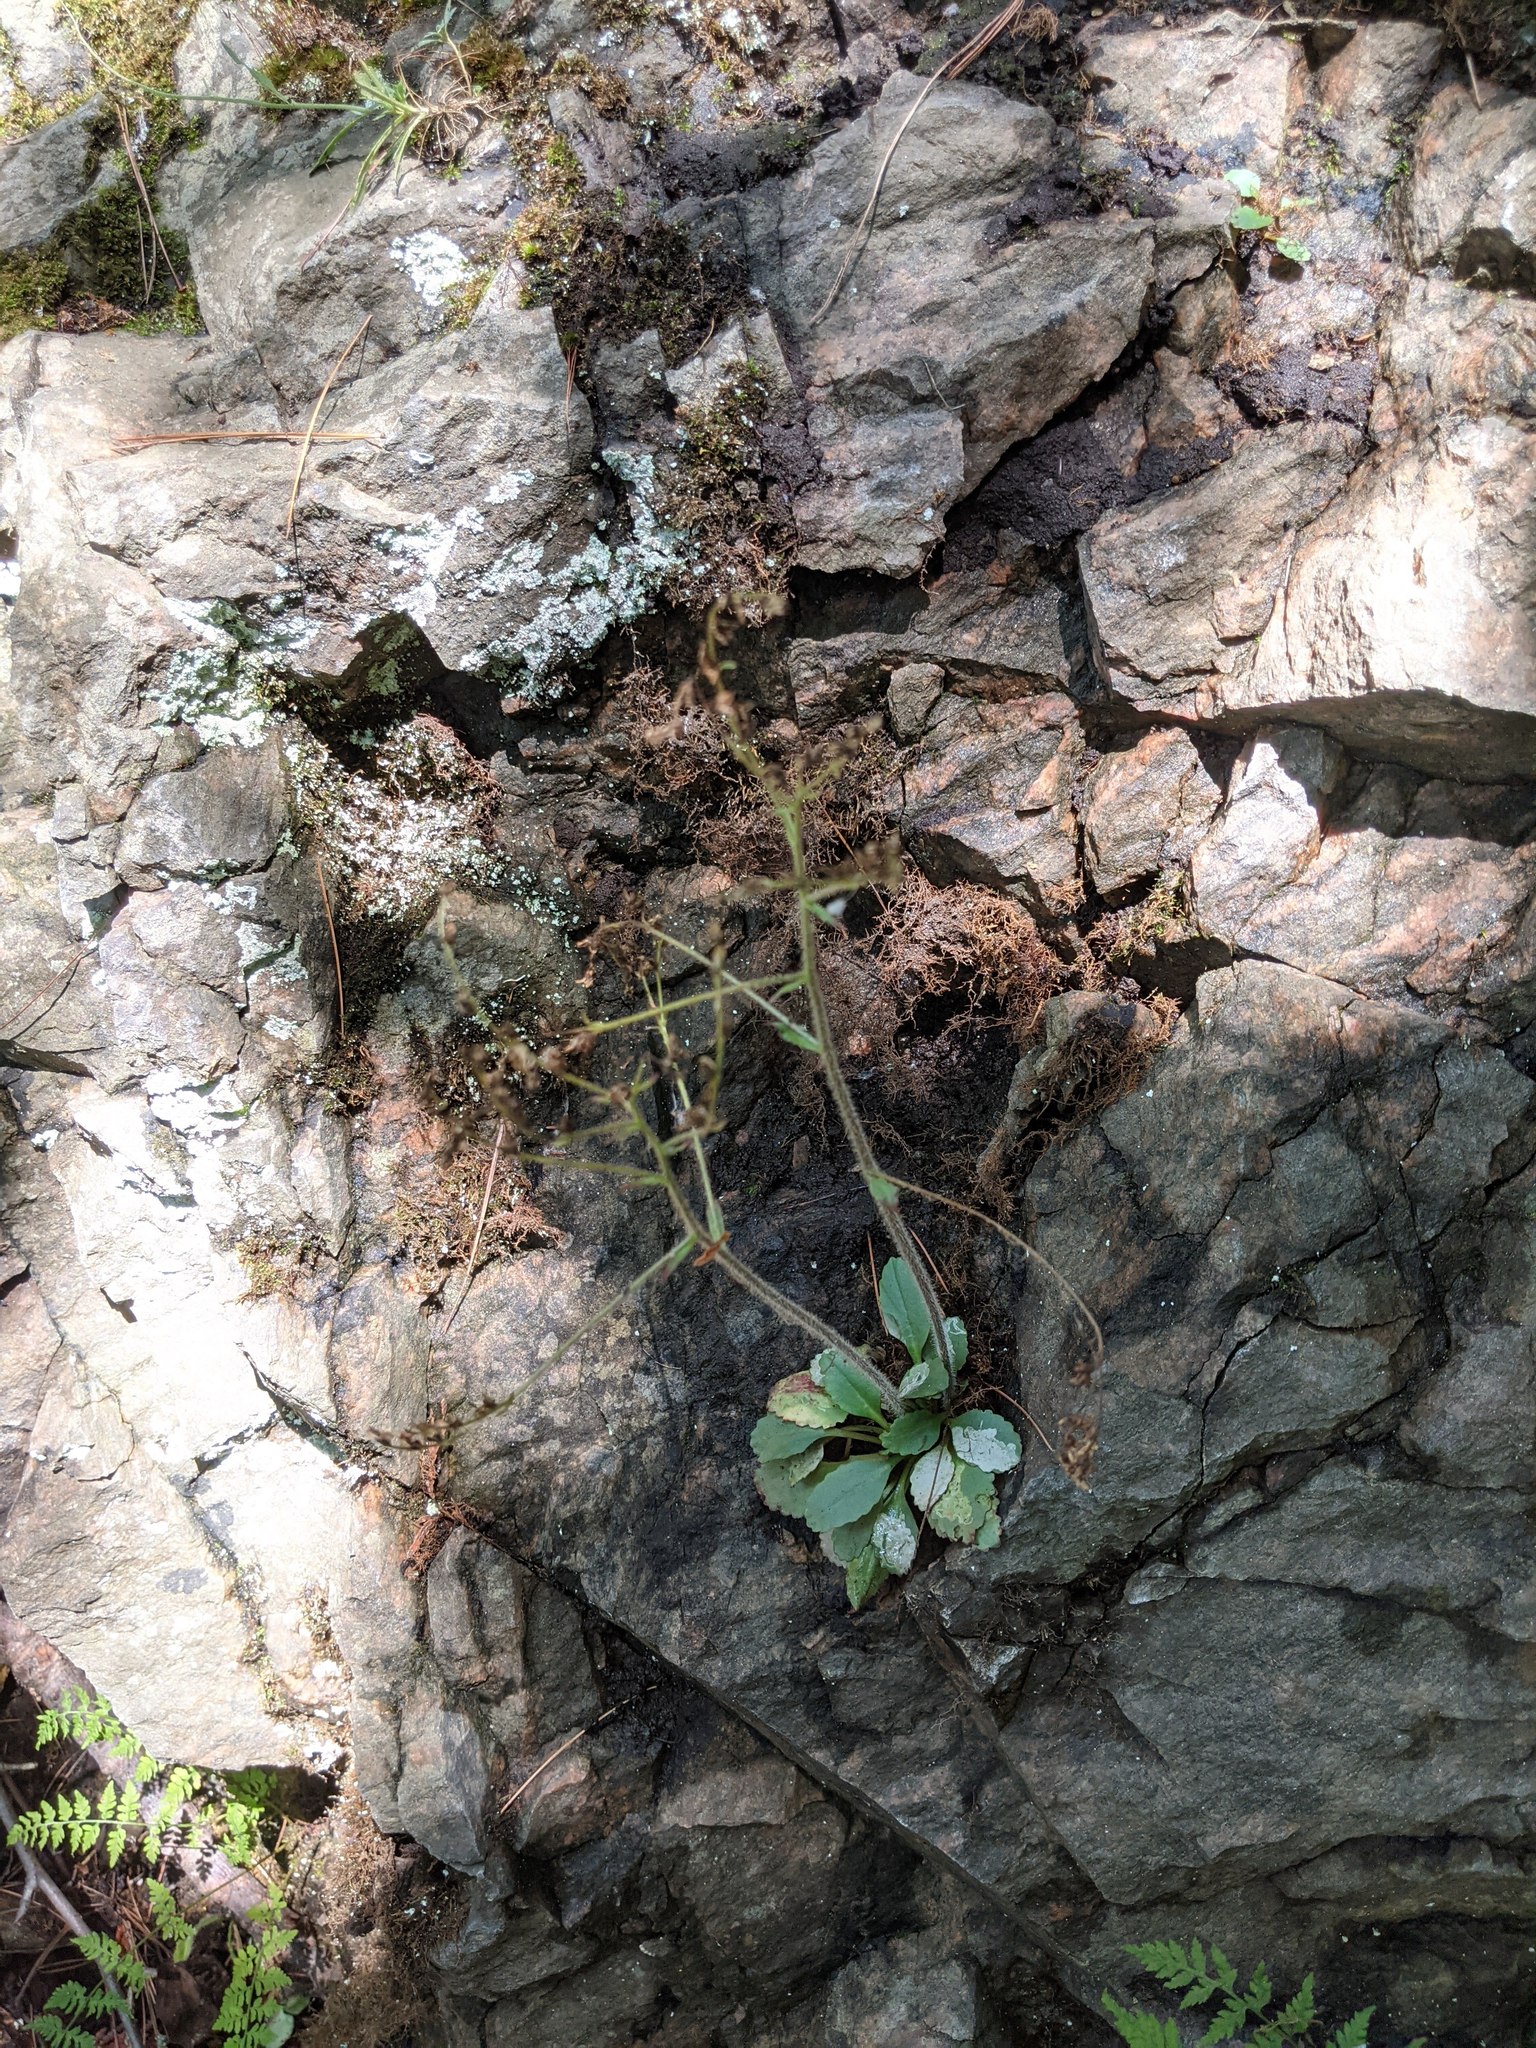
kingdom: Plantae
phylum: Tracheophyta
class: Magnoliopsida
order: Saxifragales
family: Saxifragaceae
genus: Micranthes
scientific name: Micranthes virginiensis
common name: Early saxifrage
